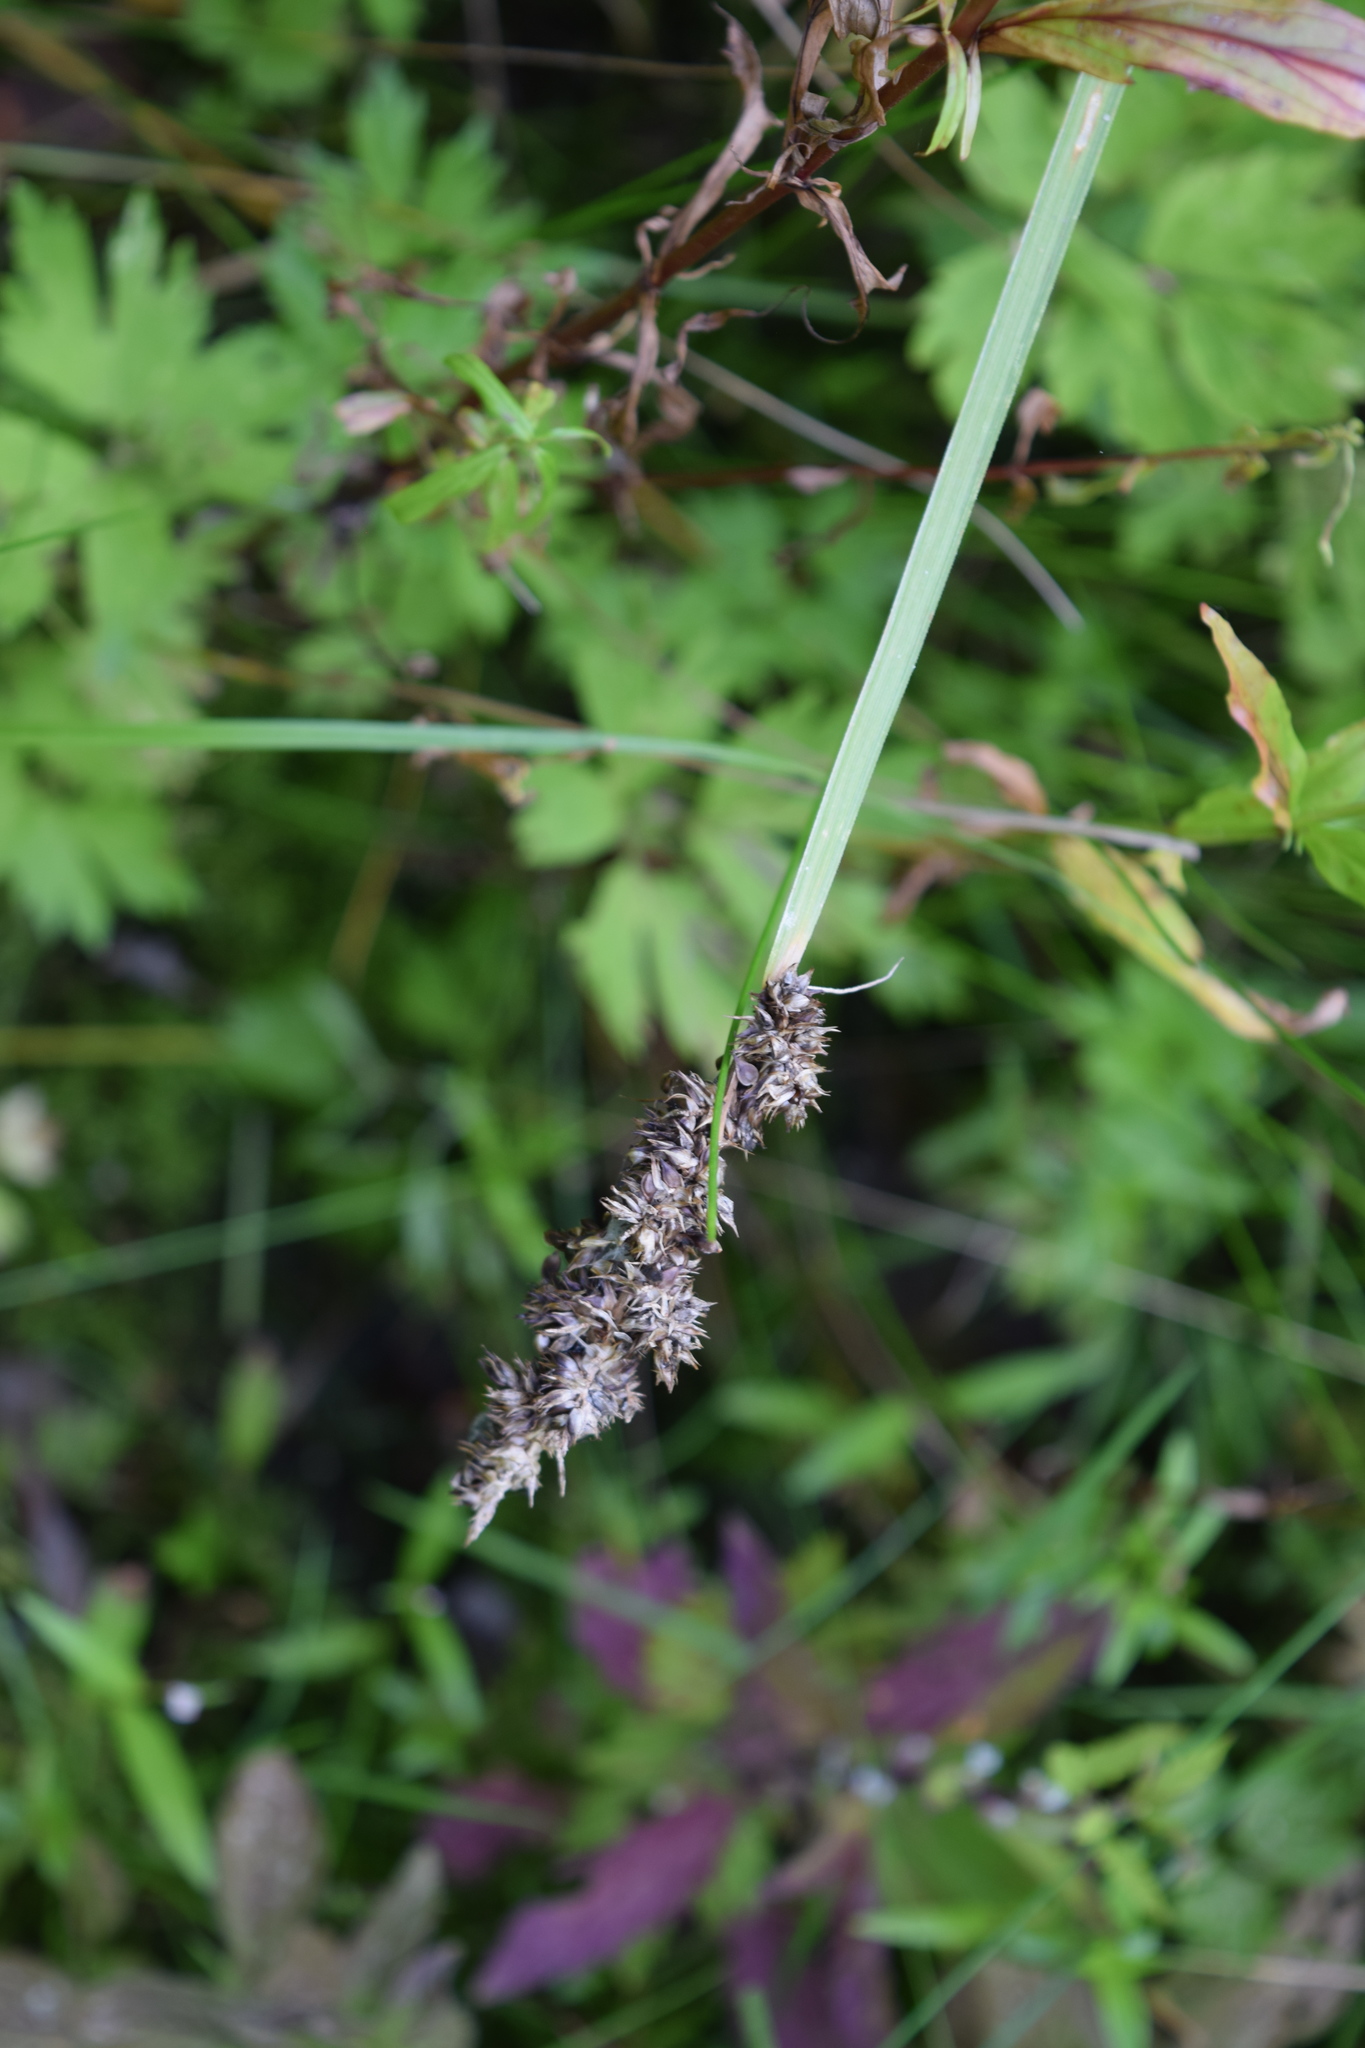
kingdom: Plantae
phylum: Tracheophyta
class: Liliopsida
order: Poales
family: Cyperaceae
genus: Carex
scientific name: Carex vulpina
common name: True fox-sedge
